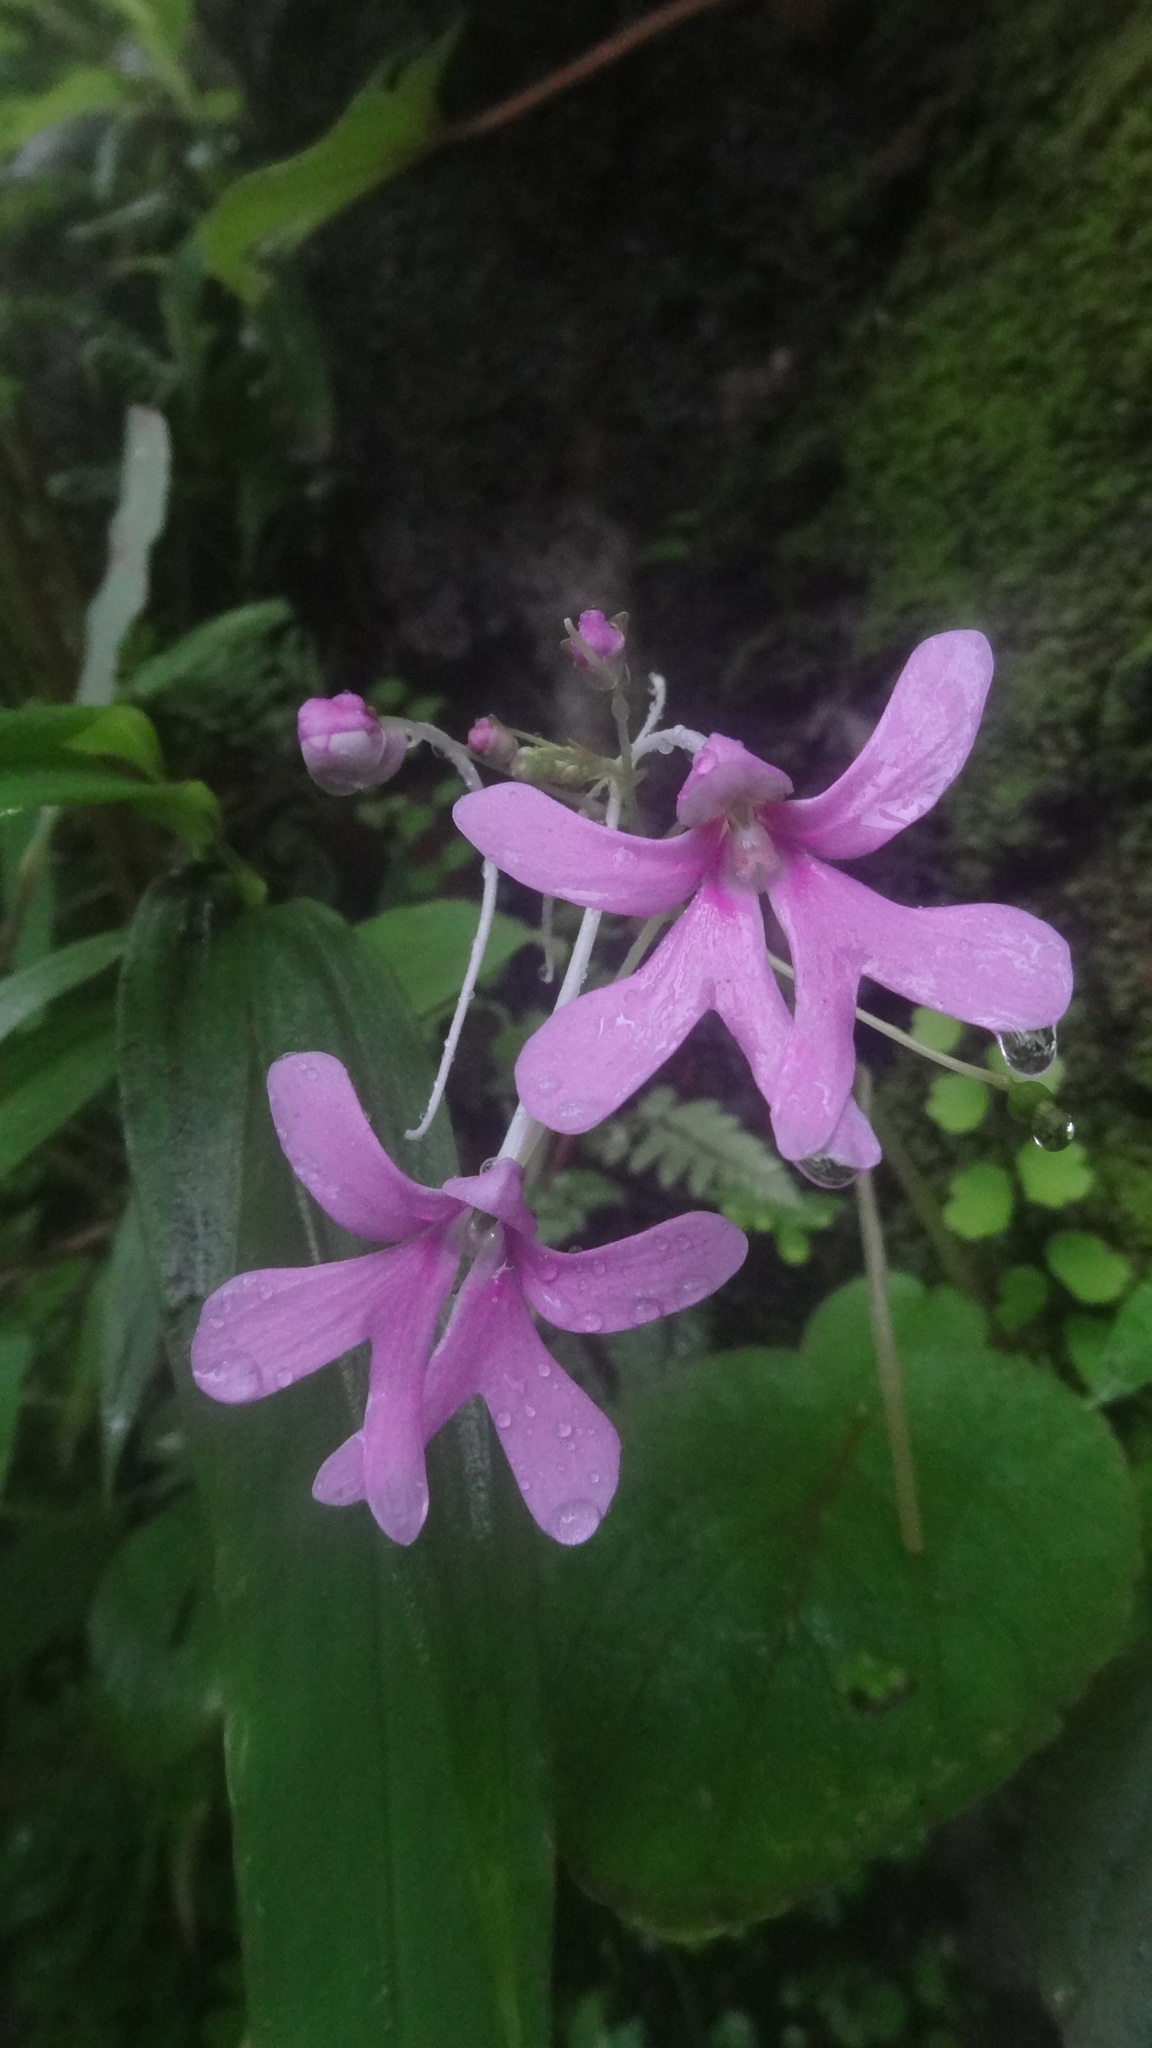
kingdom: Plantae
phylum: Tracheophyta
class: Magnoliopsida
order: Ericales
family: Balsaminaceae
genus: Impatiens
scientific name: Impatiens scapiflora
